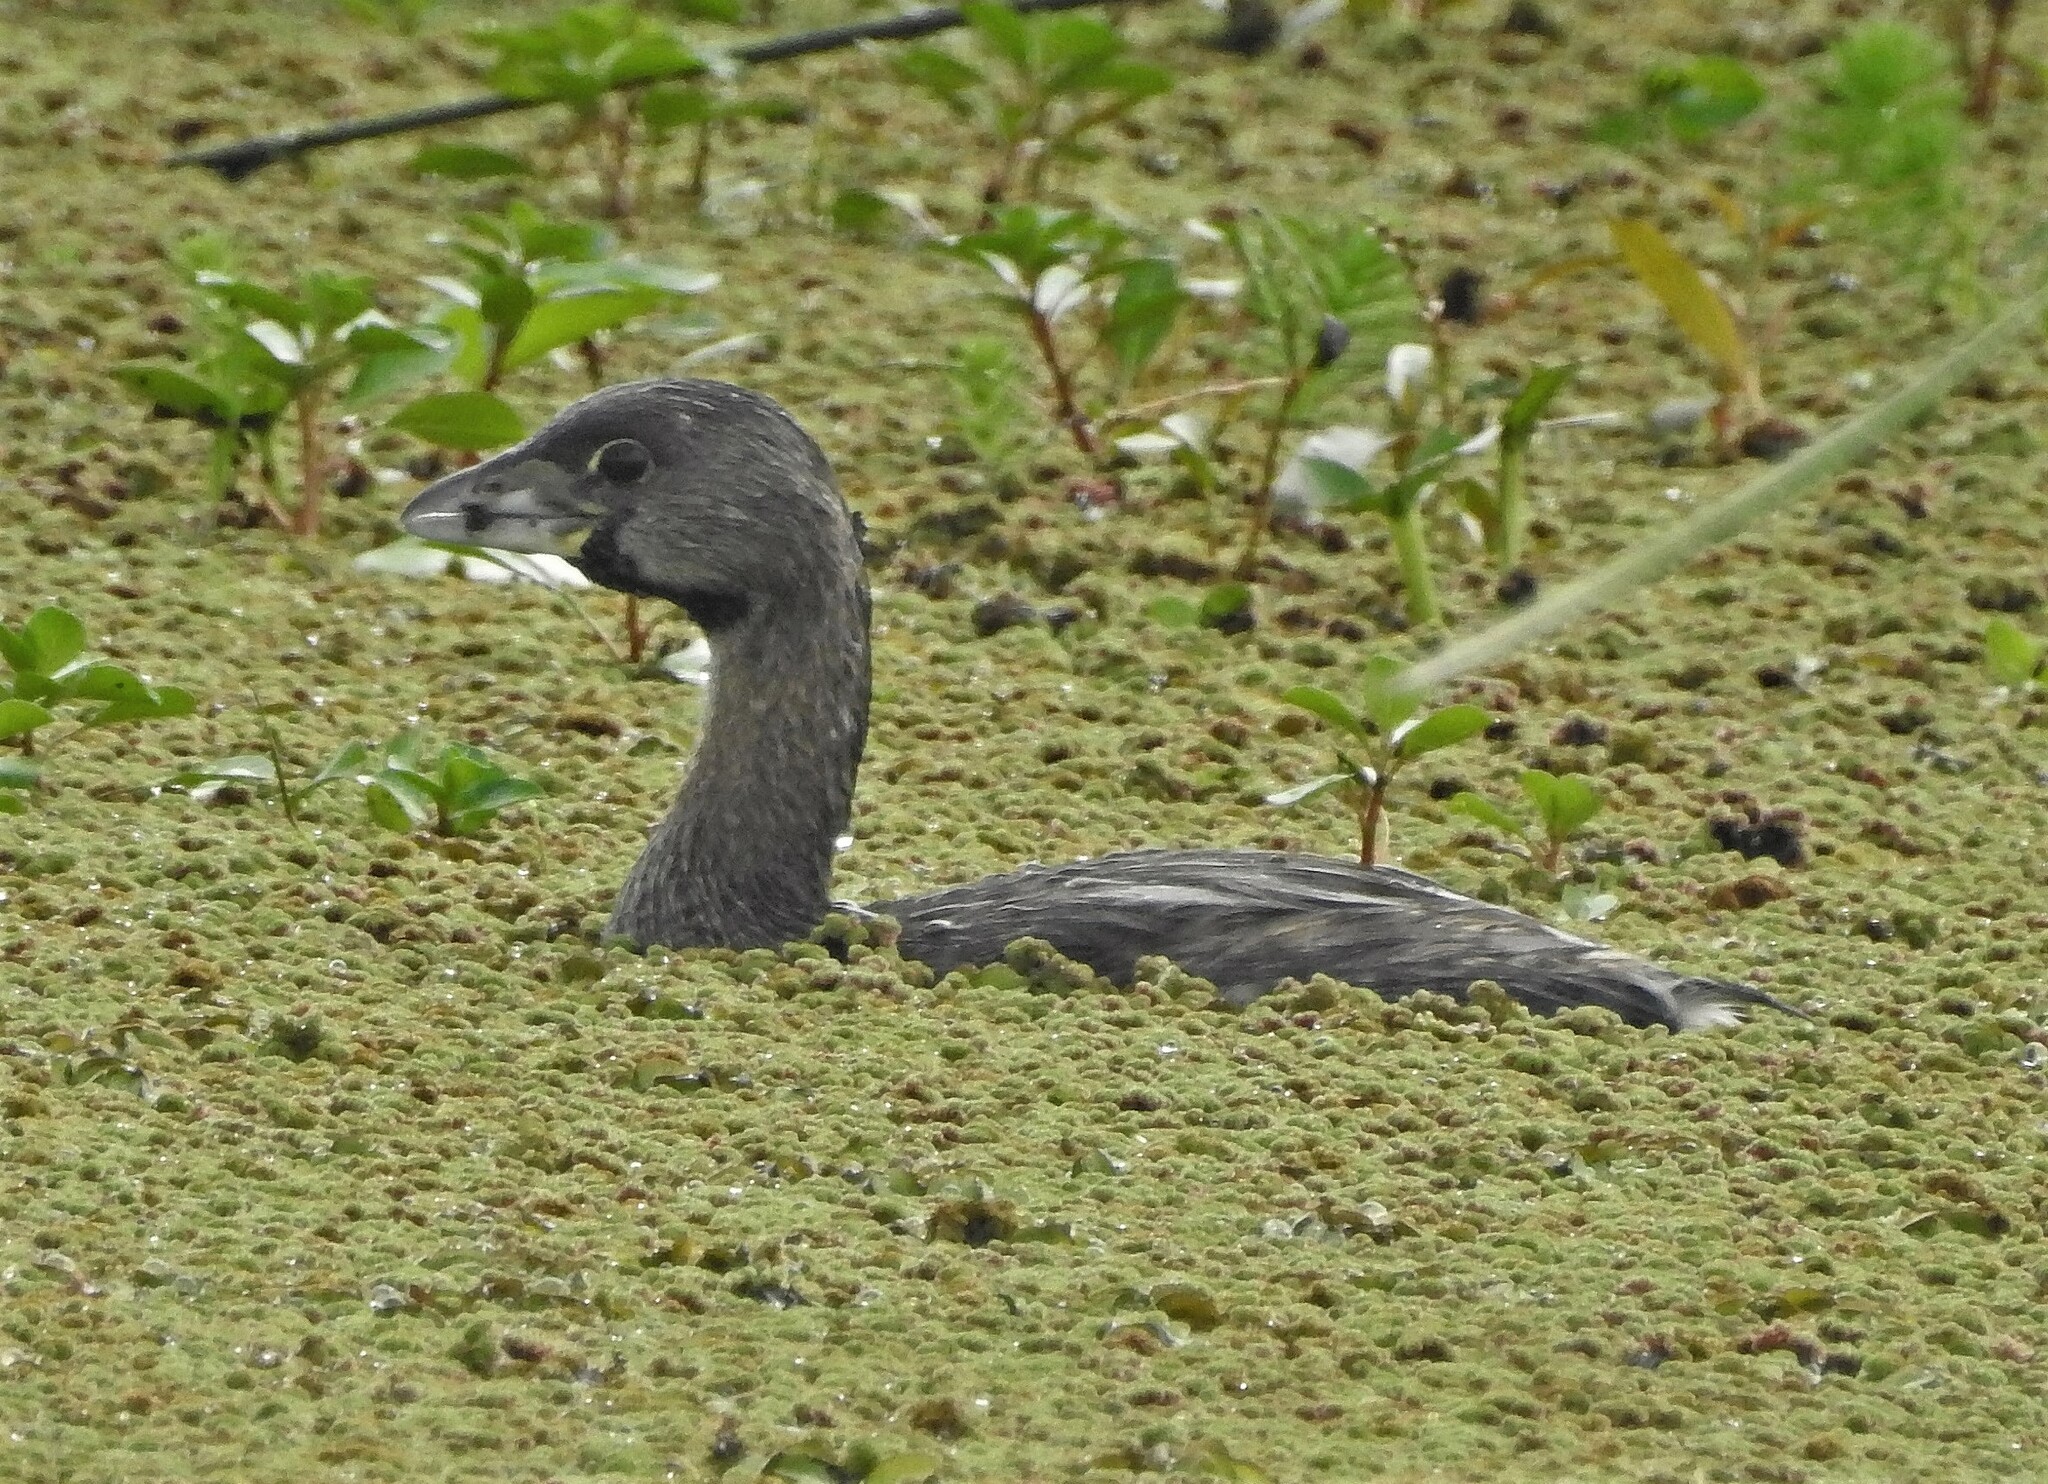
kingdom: Animalia
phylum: Chordata
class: Aves
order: Podicipediformes
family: Podicipedidae
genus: Podilymbus
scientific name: Podilymbus podiceps
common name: Pied-billed grebe
